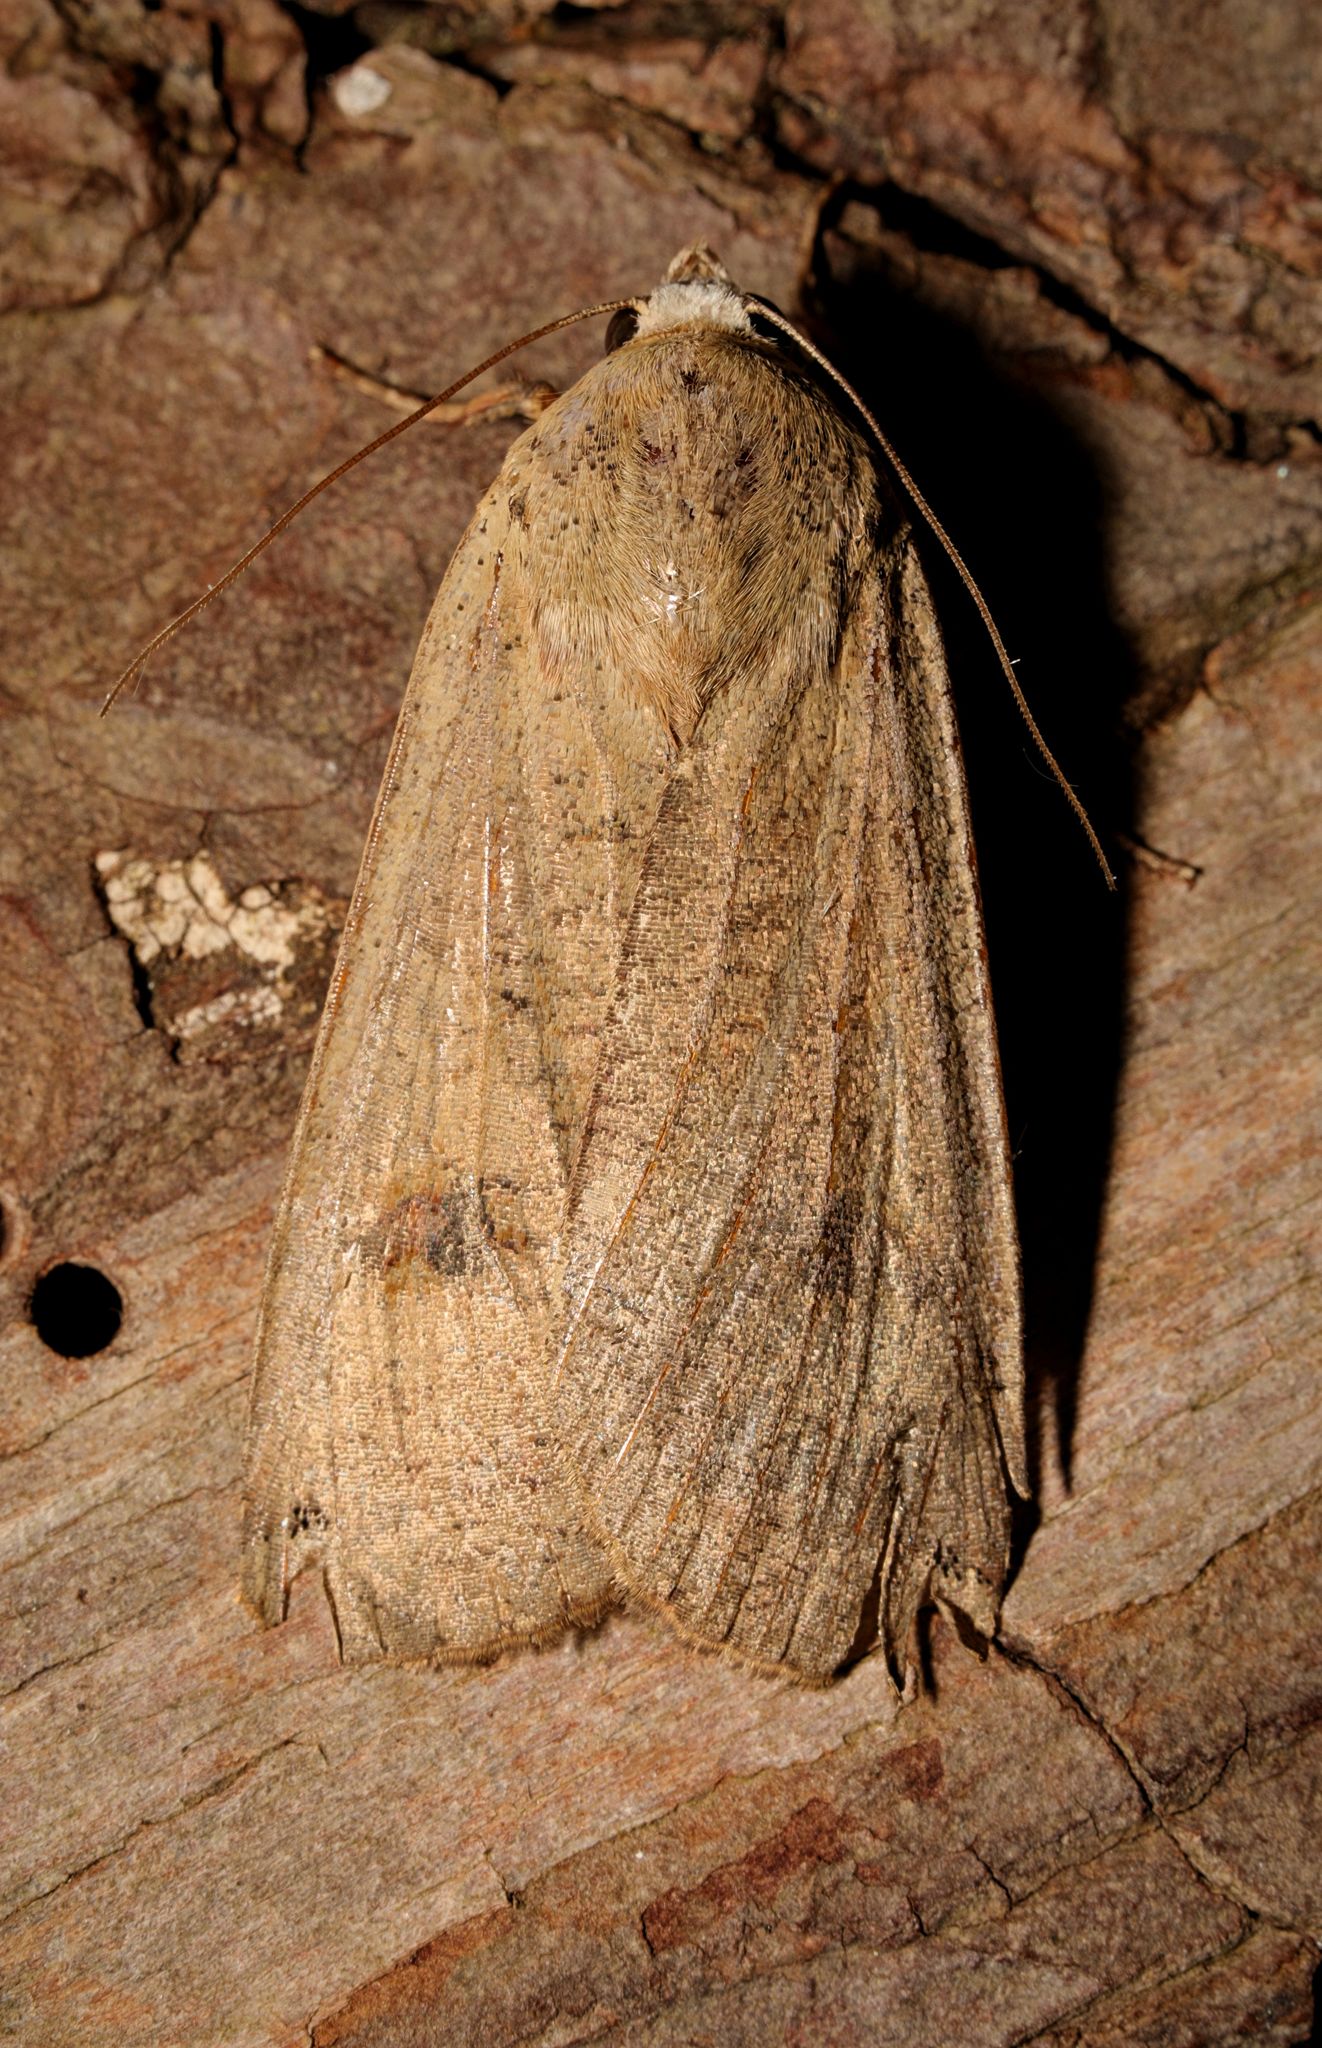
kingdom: Animalia
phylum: Arthropoda
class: Insecta
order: Lepidoptera
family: Noctuidae
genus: Noctua
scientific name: Noctua pronuba
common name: Large yellow underwing
